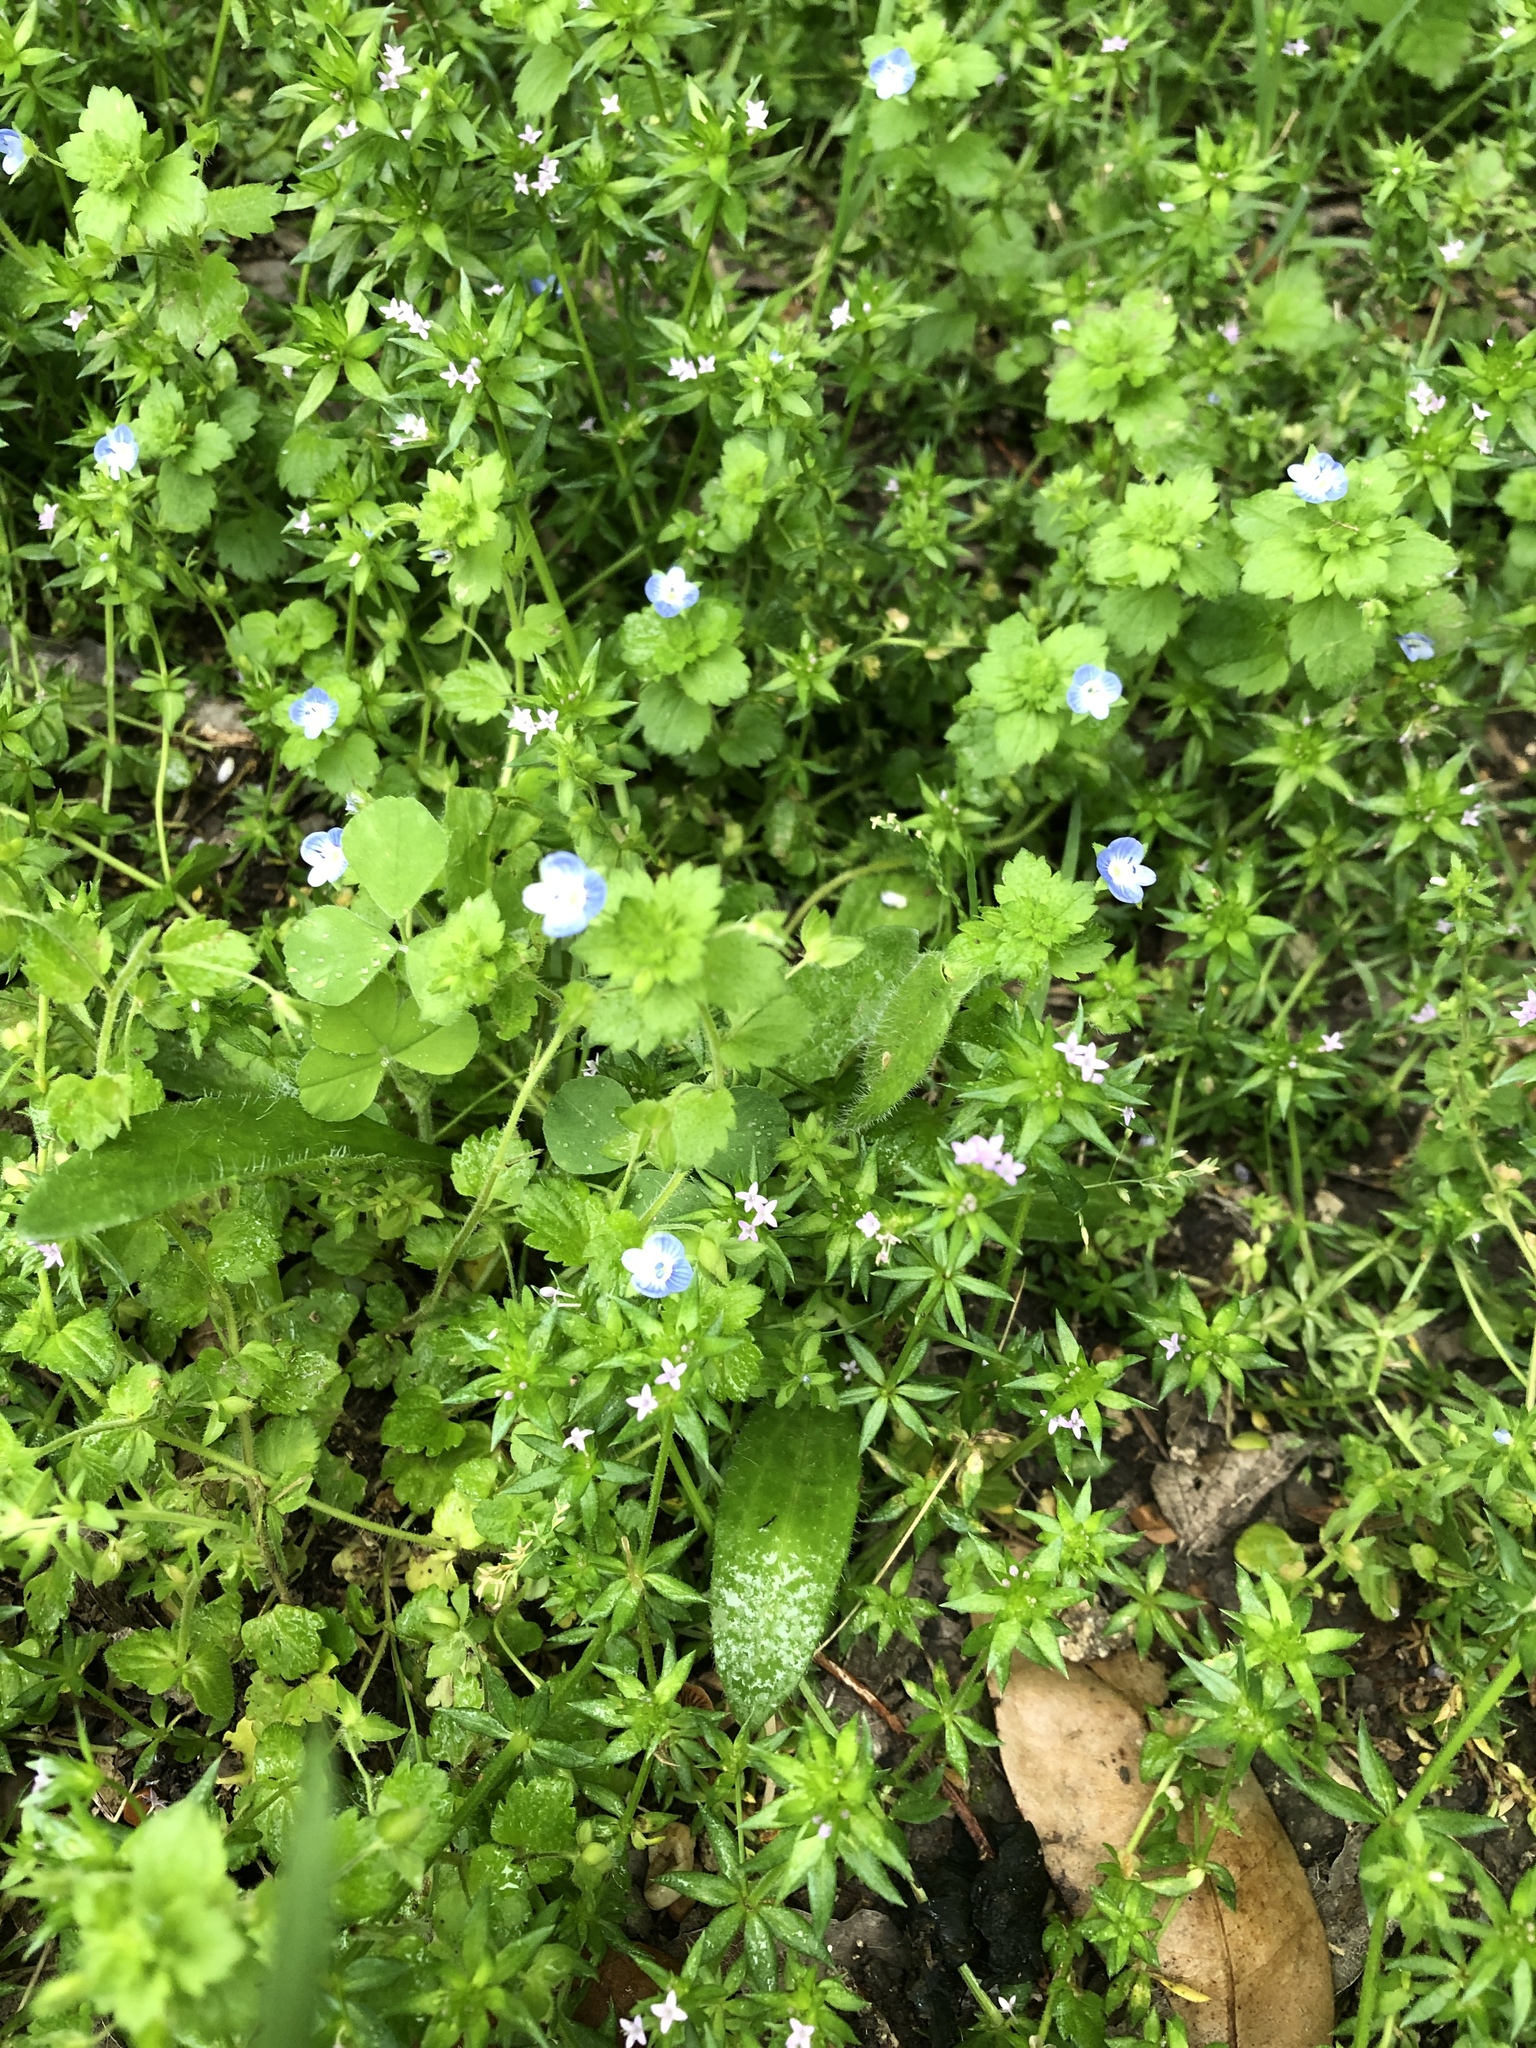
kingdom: Plantae
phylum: Tracheophyta
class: Magnoliopsida
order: Lamiales
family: Plantaginaceae
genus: Veronica
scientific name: Veronica persica
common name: Common field-speedwell
